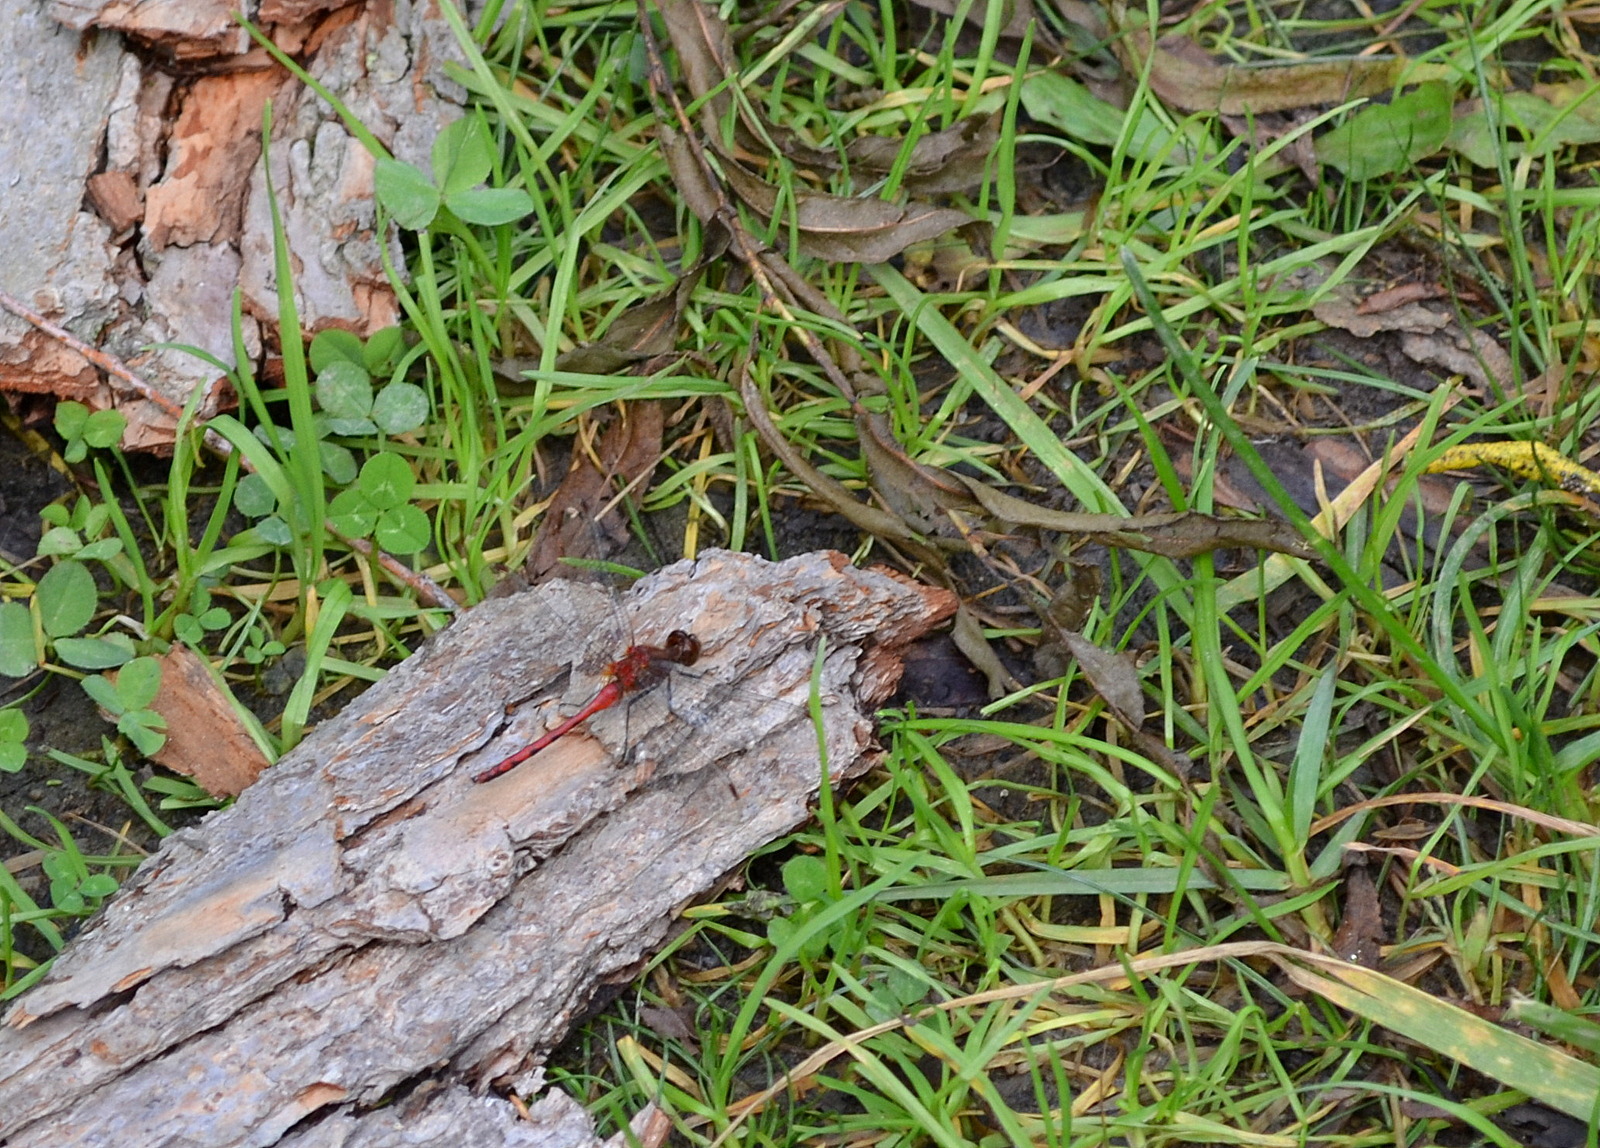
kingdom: Animalia
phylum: Arthropoda
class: Insecta
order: Odonata
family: Libellulidae
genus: Sympetrum
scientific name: Sympetrum
